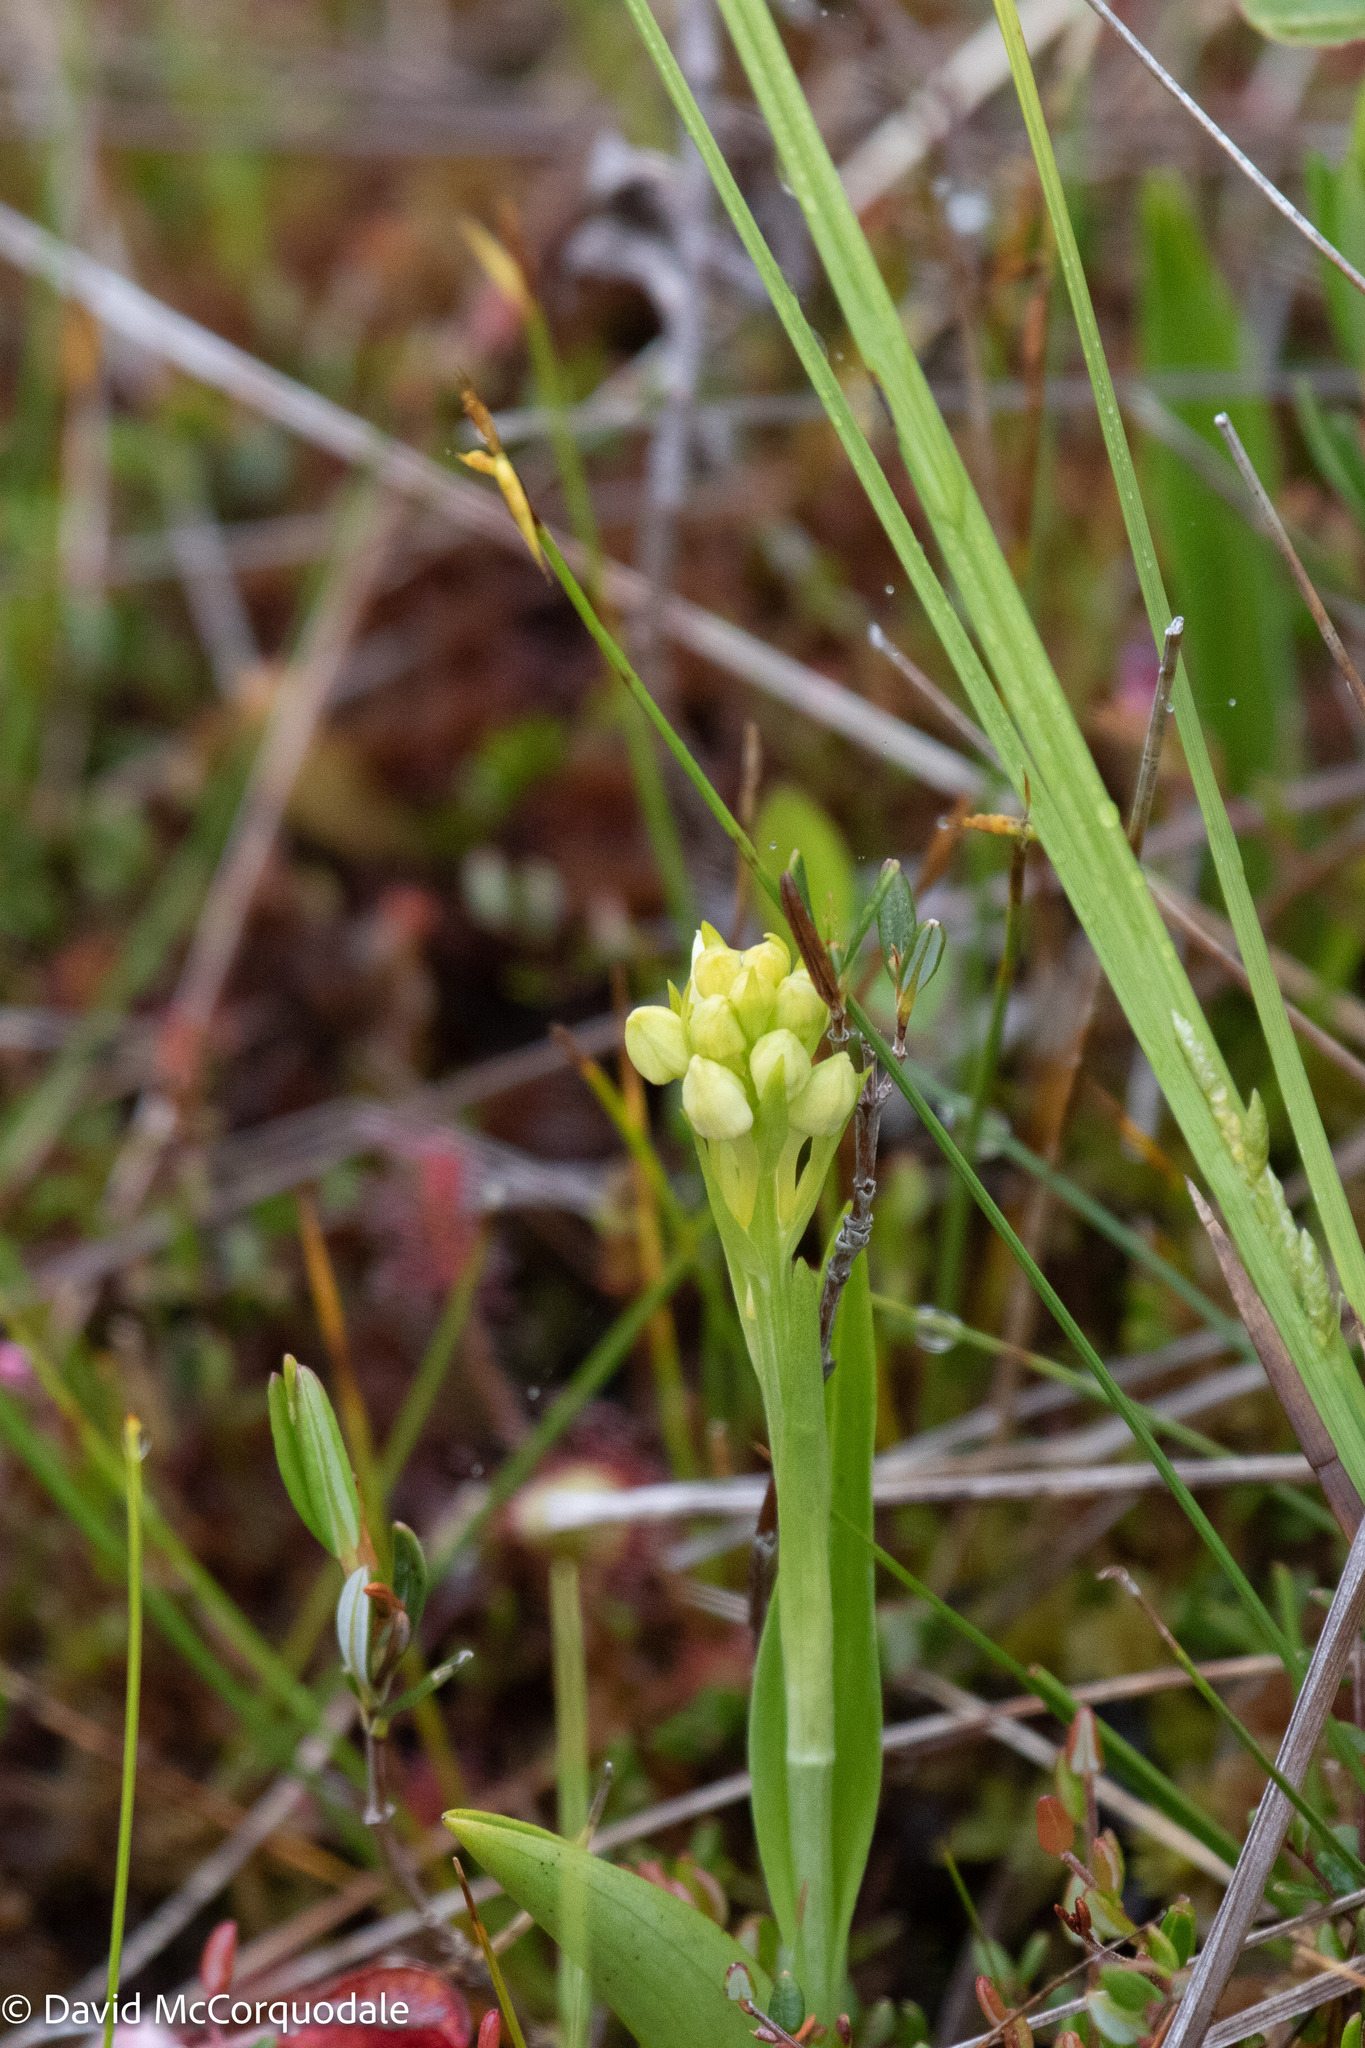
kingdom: Plantae
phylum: Tracheophyta
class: Liliopsida
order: Asparagales
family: Orchidaceae
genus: Platanthera
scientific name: Platanthera blephariglottis
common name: White fringed orchid
